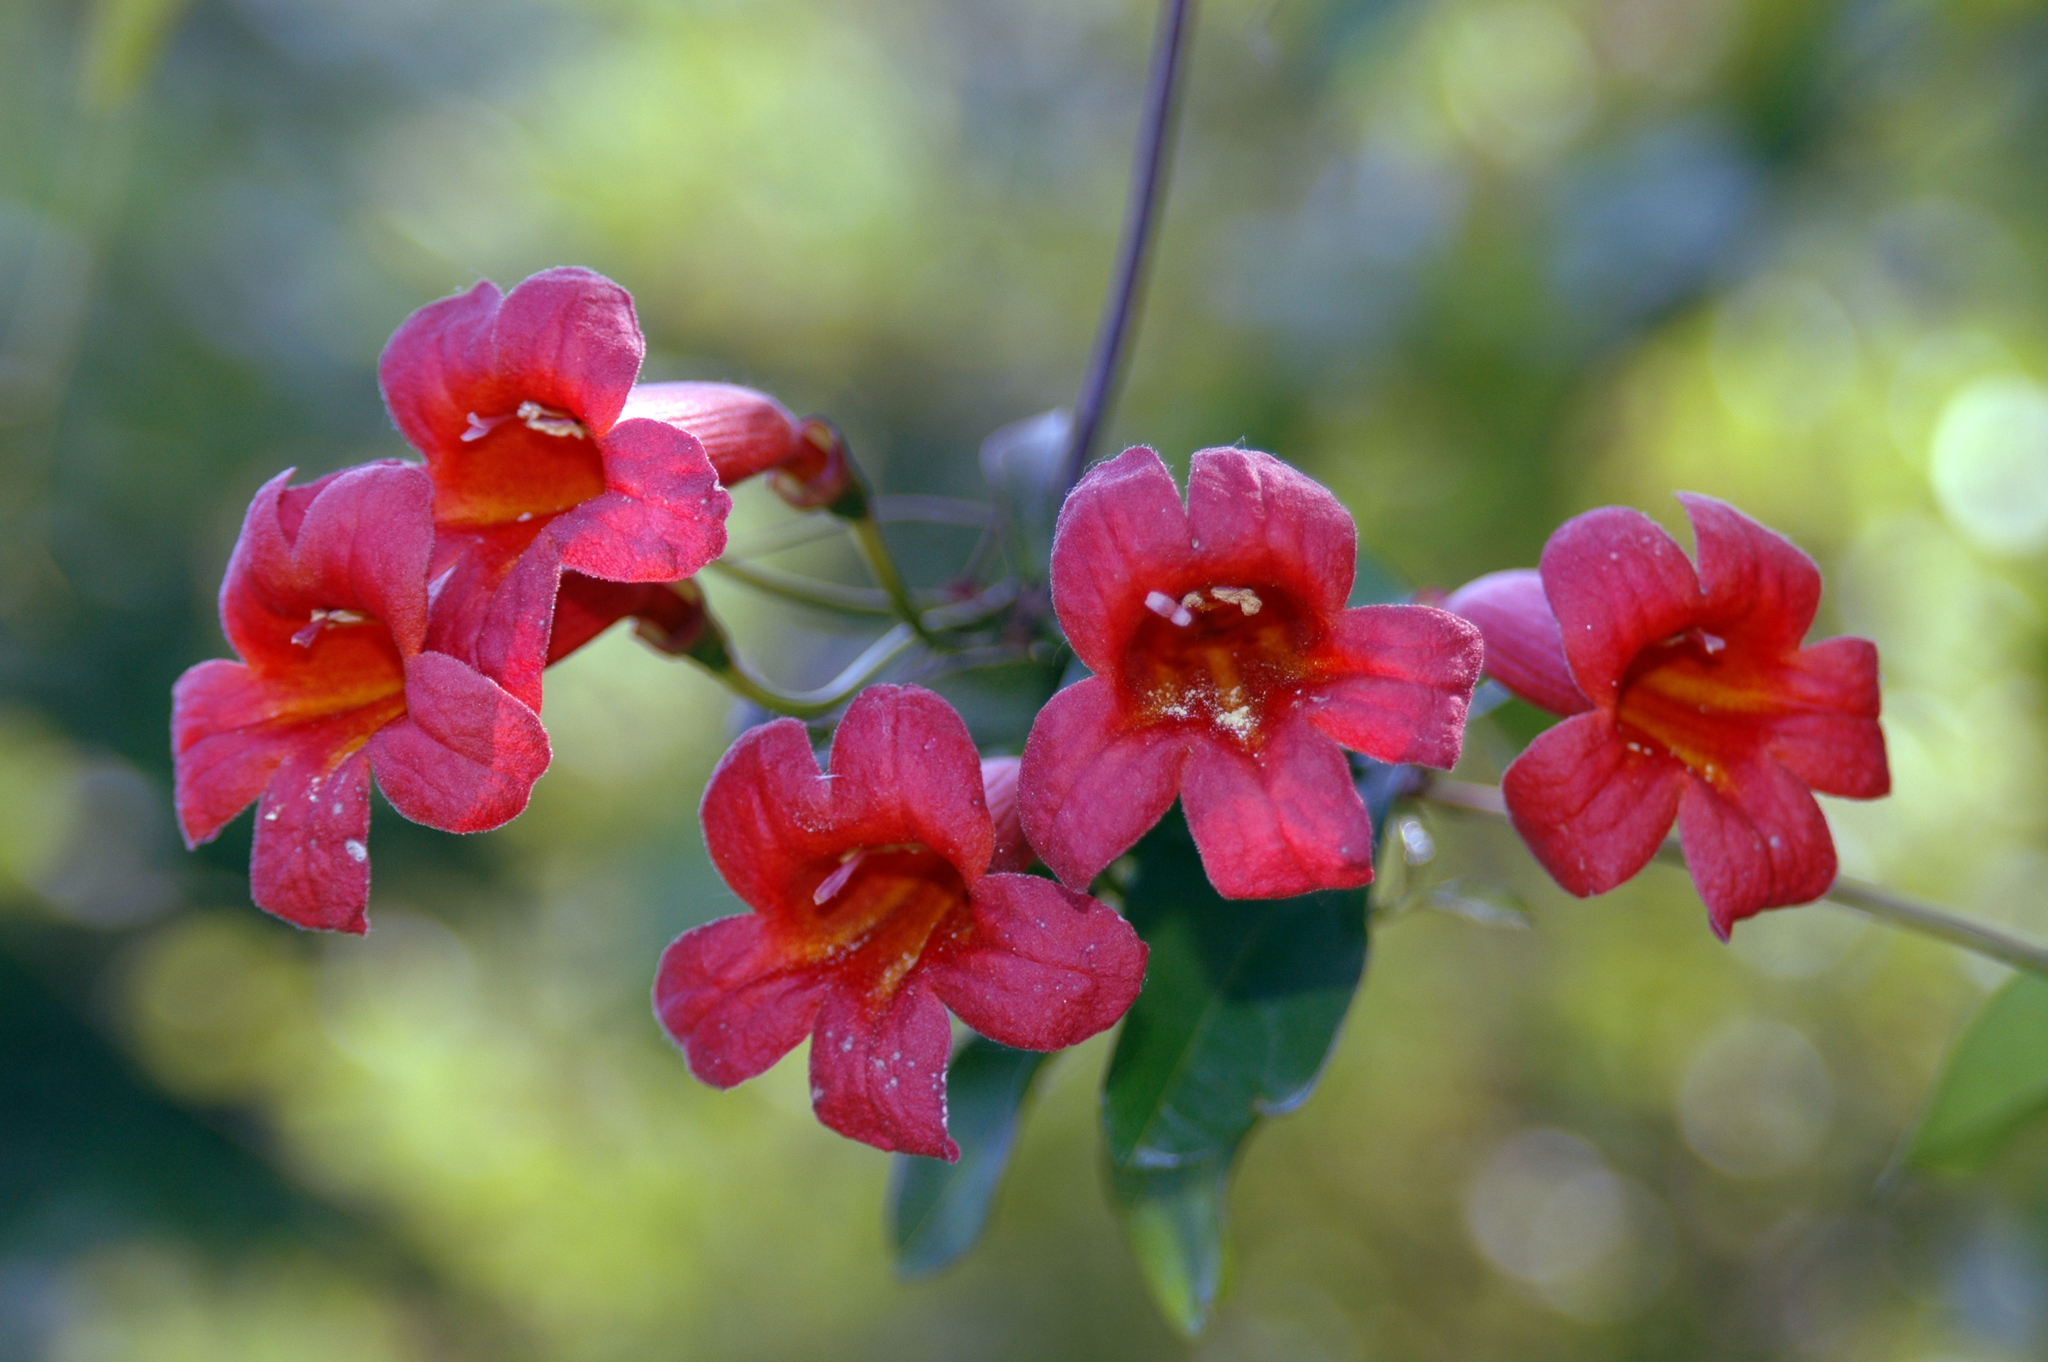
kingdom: Plantae
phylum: Tracheophyta
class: Magnoliopsida
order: Lamiales
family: Bignoniaceae
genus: Bignonia
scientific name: Bignonia capreolata
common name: Crossvine
